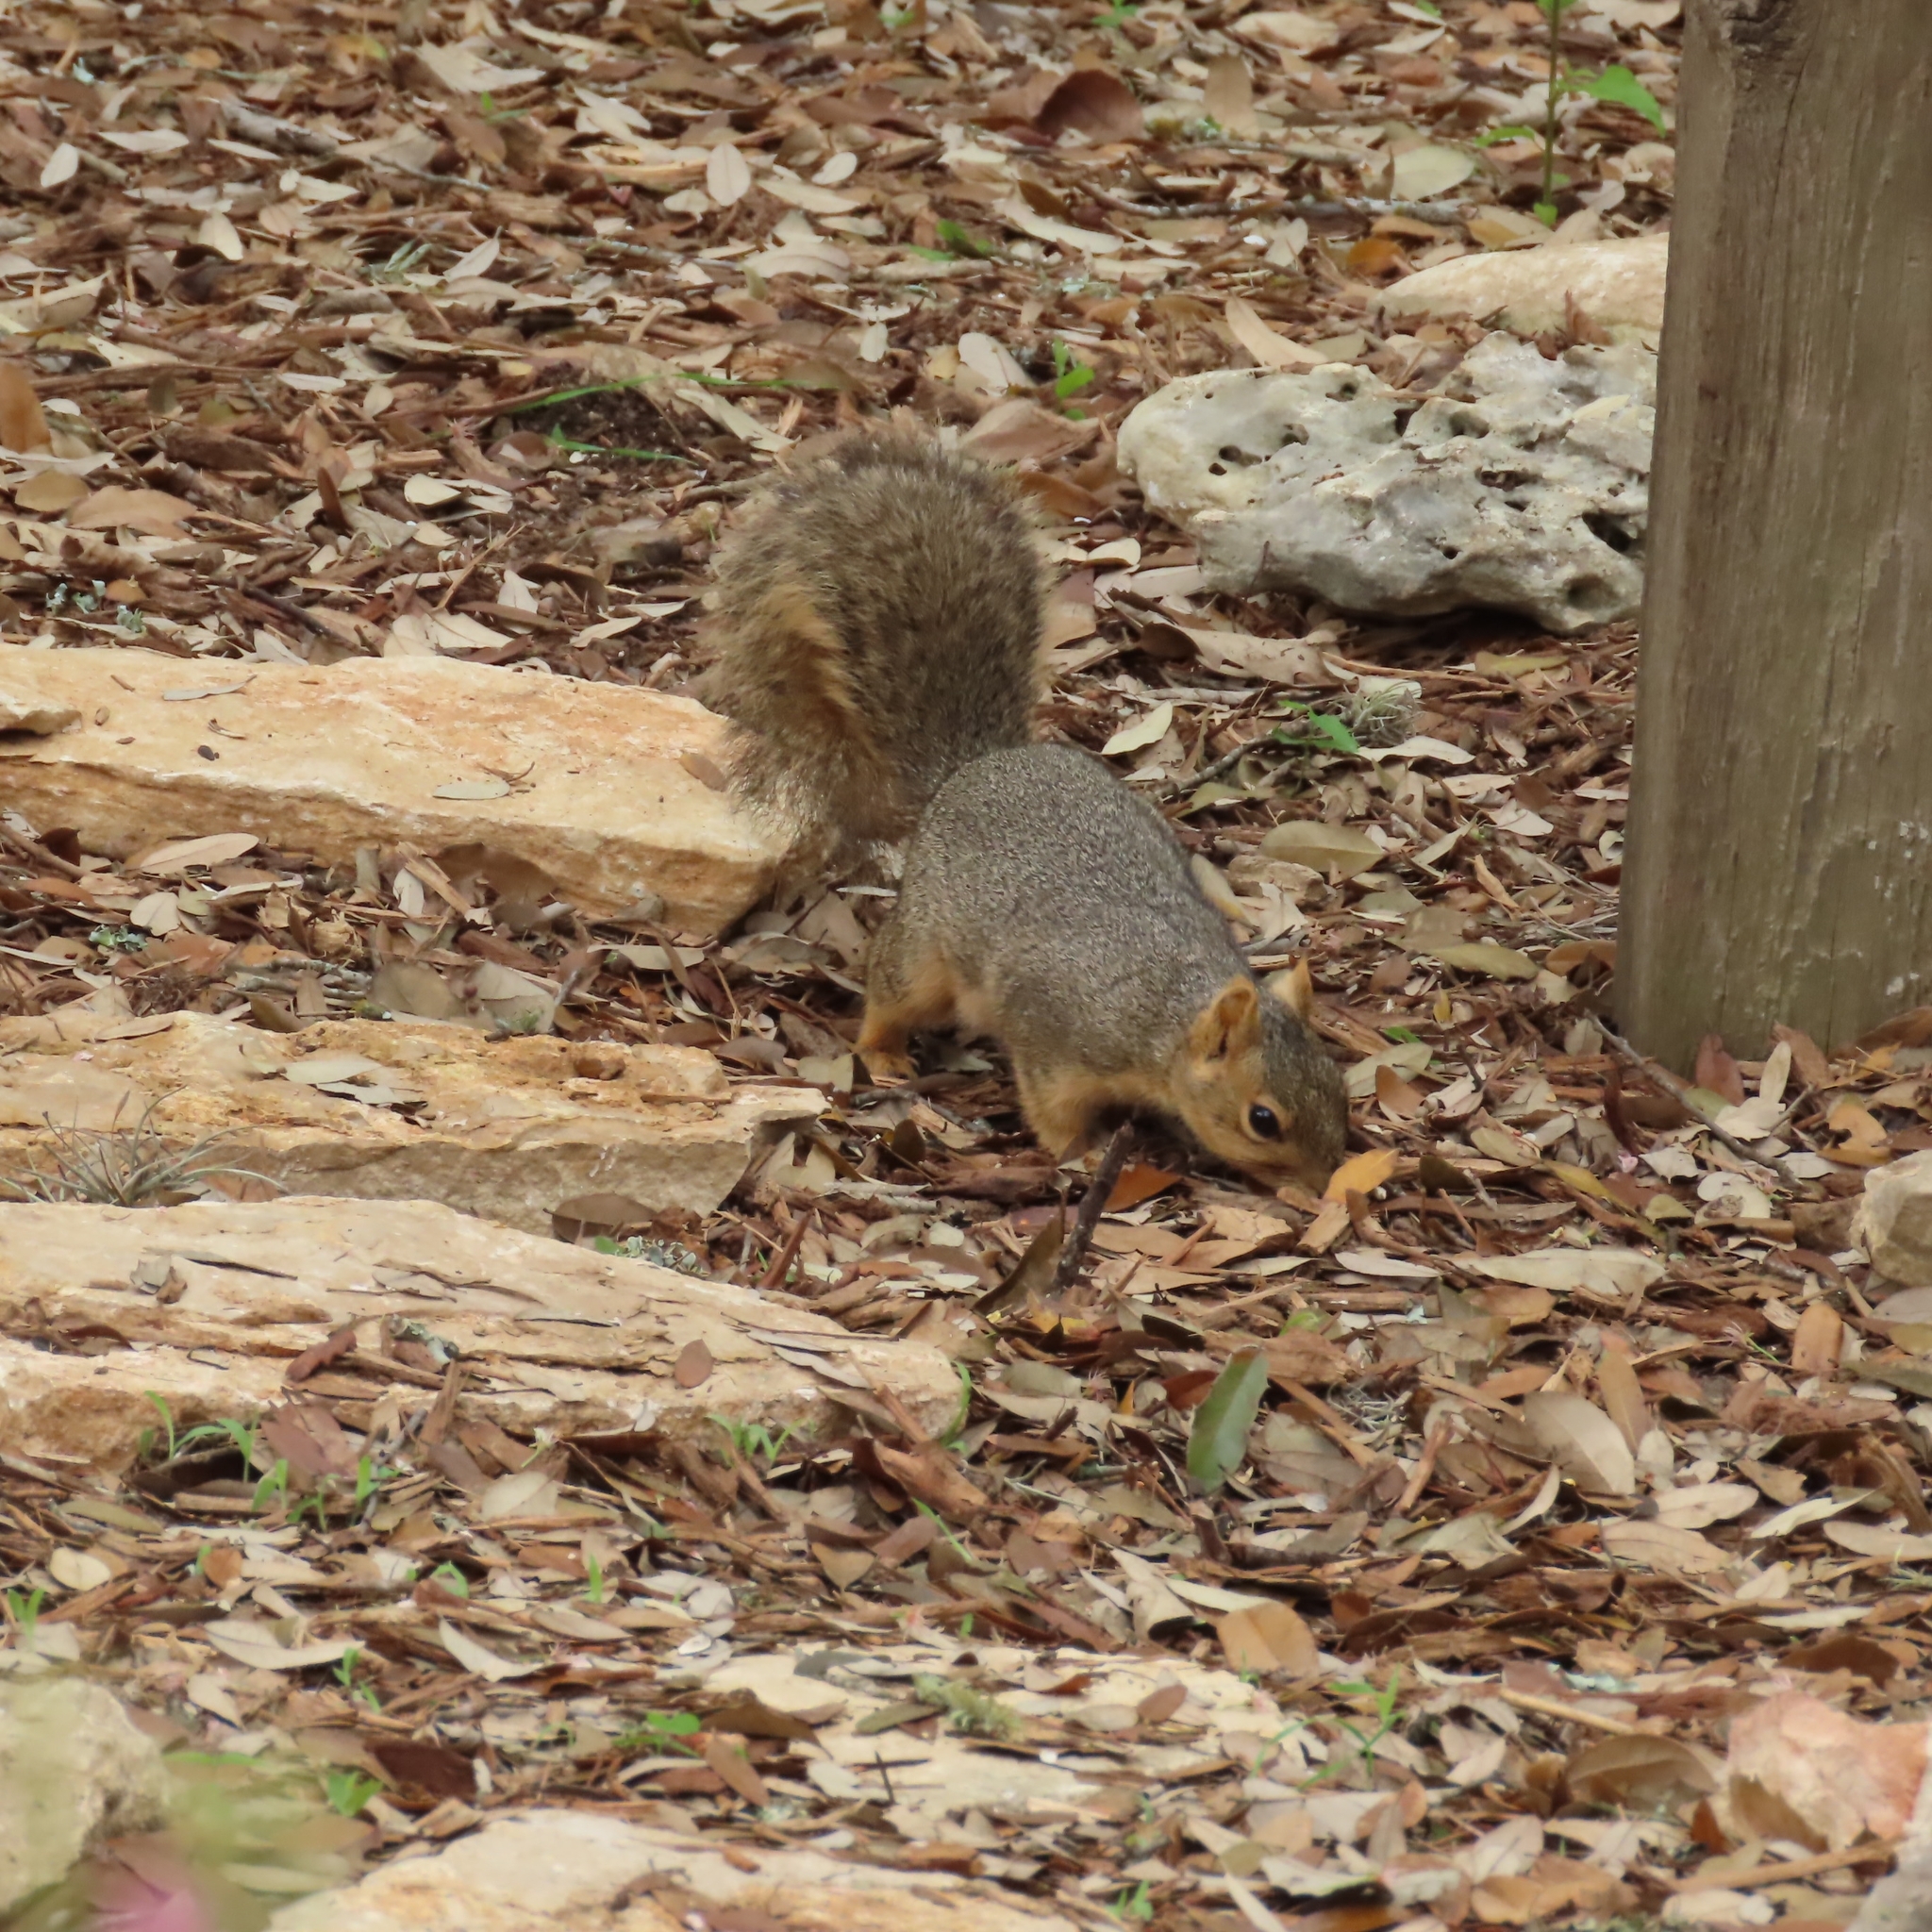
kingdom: Animalia
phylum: Chordata
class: Mammalia
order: Rodentia
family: Sciuridae
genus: Sciurus
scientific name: Sciurus niger
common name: Fox squirrel
